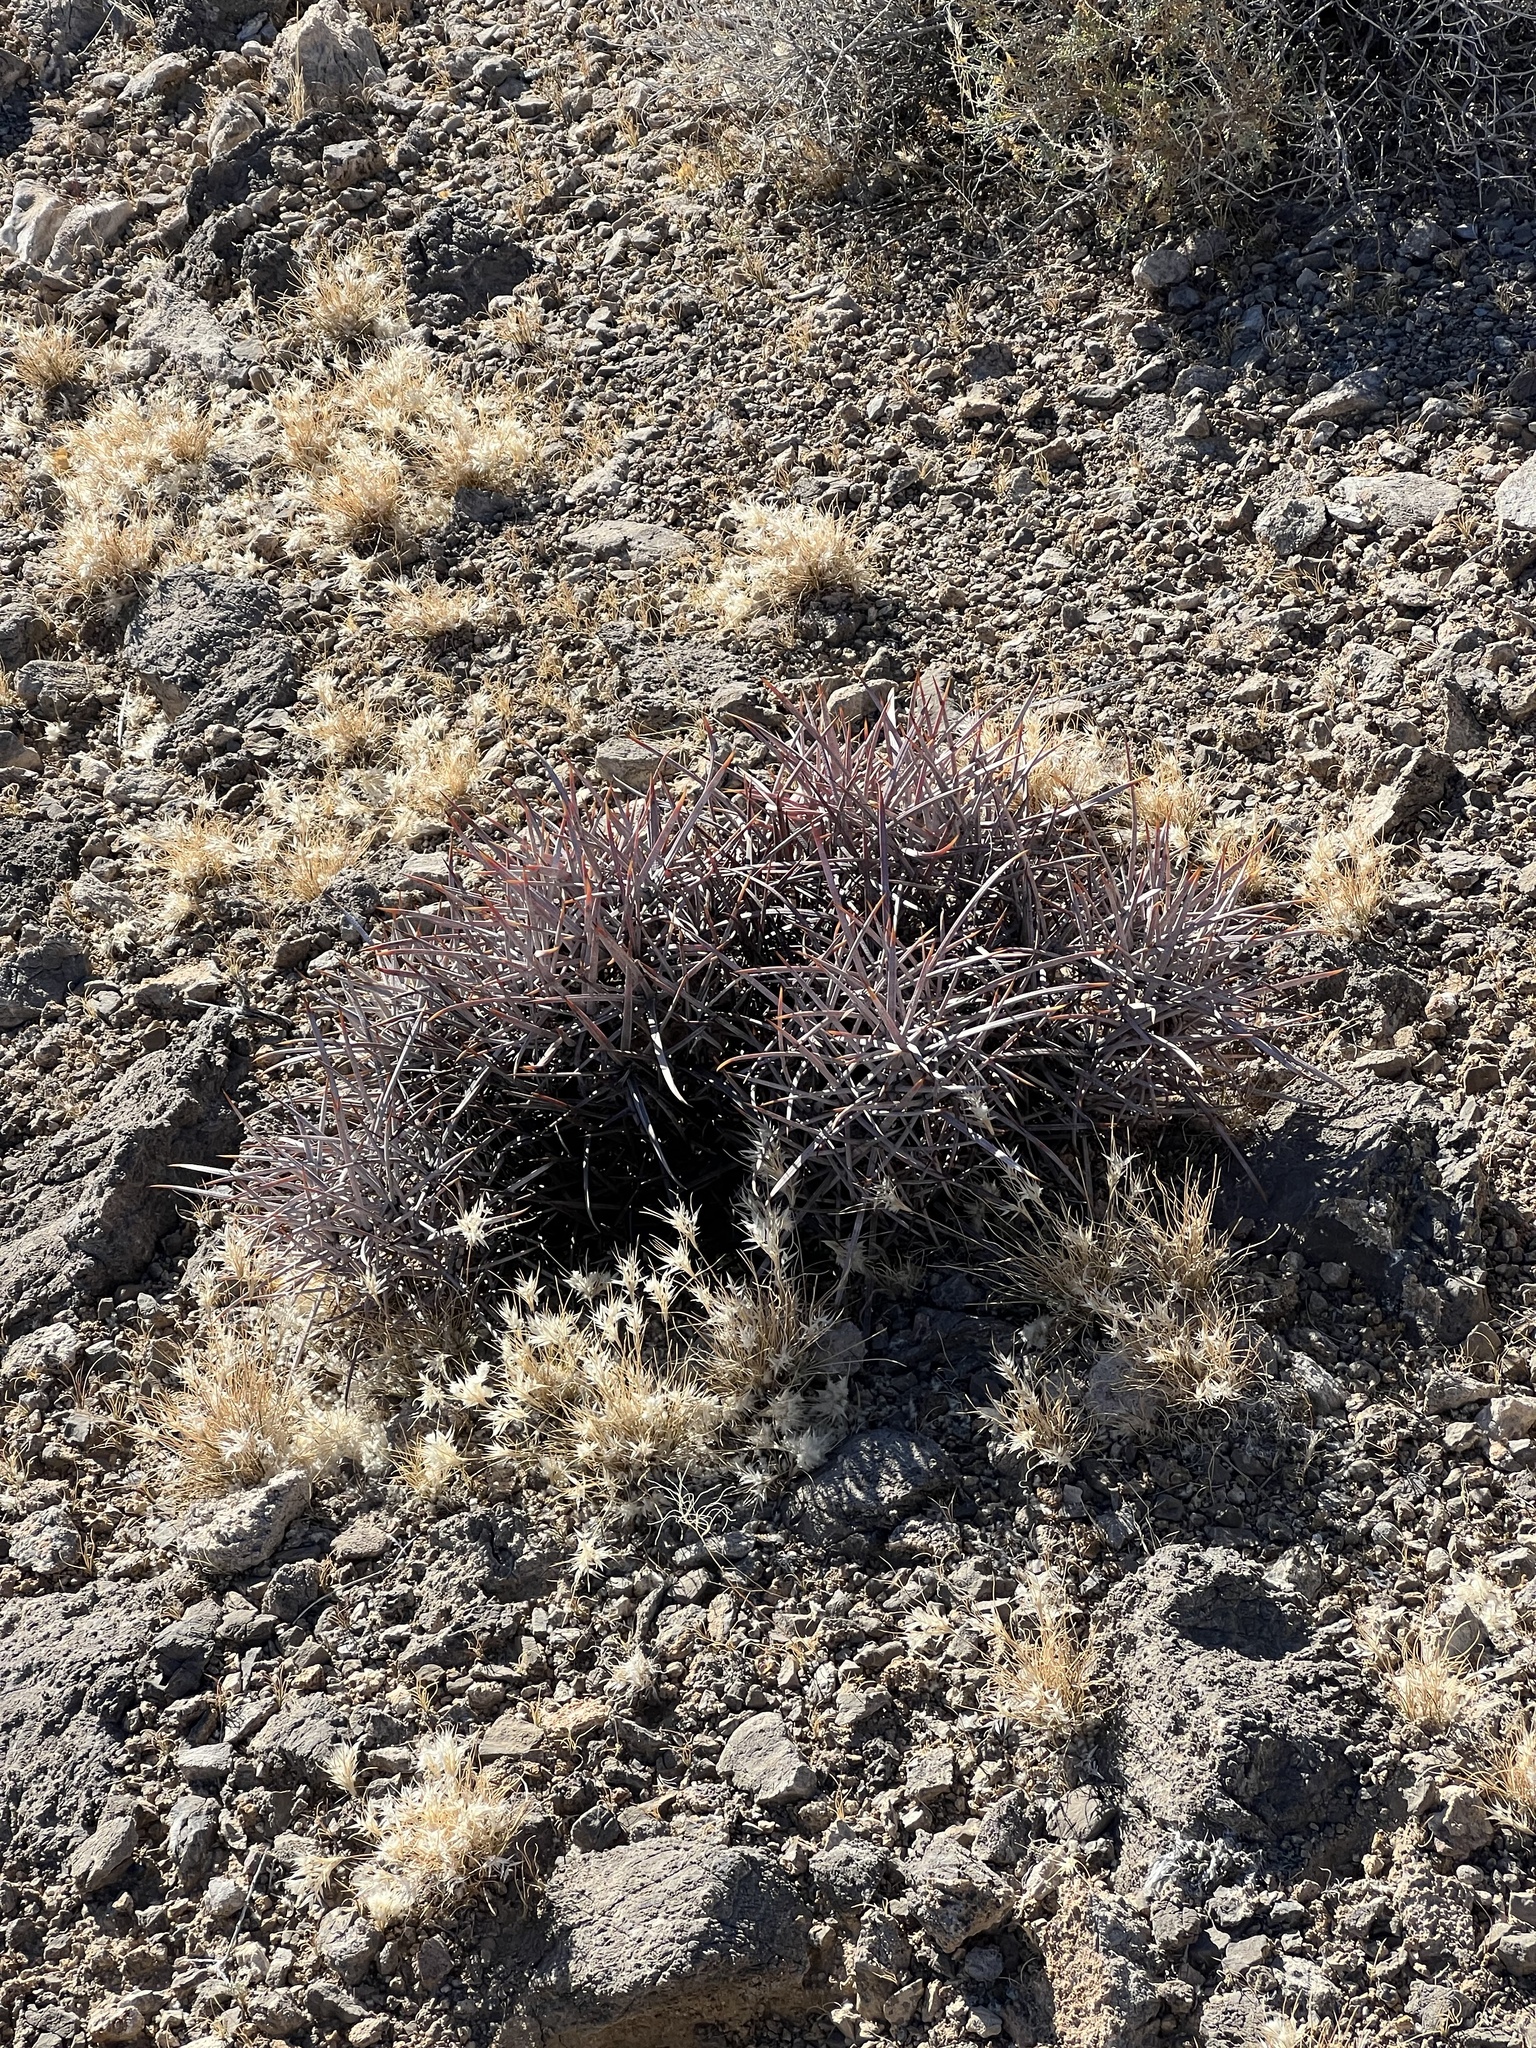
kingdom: Plantae
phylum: Tracheophyta
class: Magnoliopsida
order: Caryophyllales
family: Cactaceae
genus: Echinocactus
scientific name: Echinocactus polycephalus
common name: Cottontop cactus
